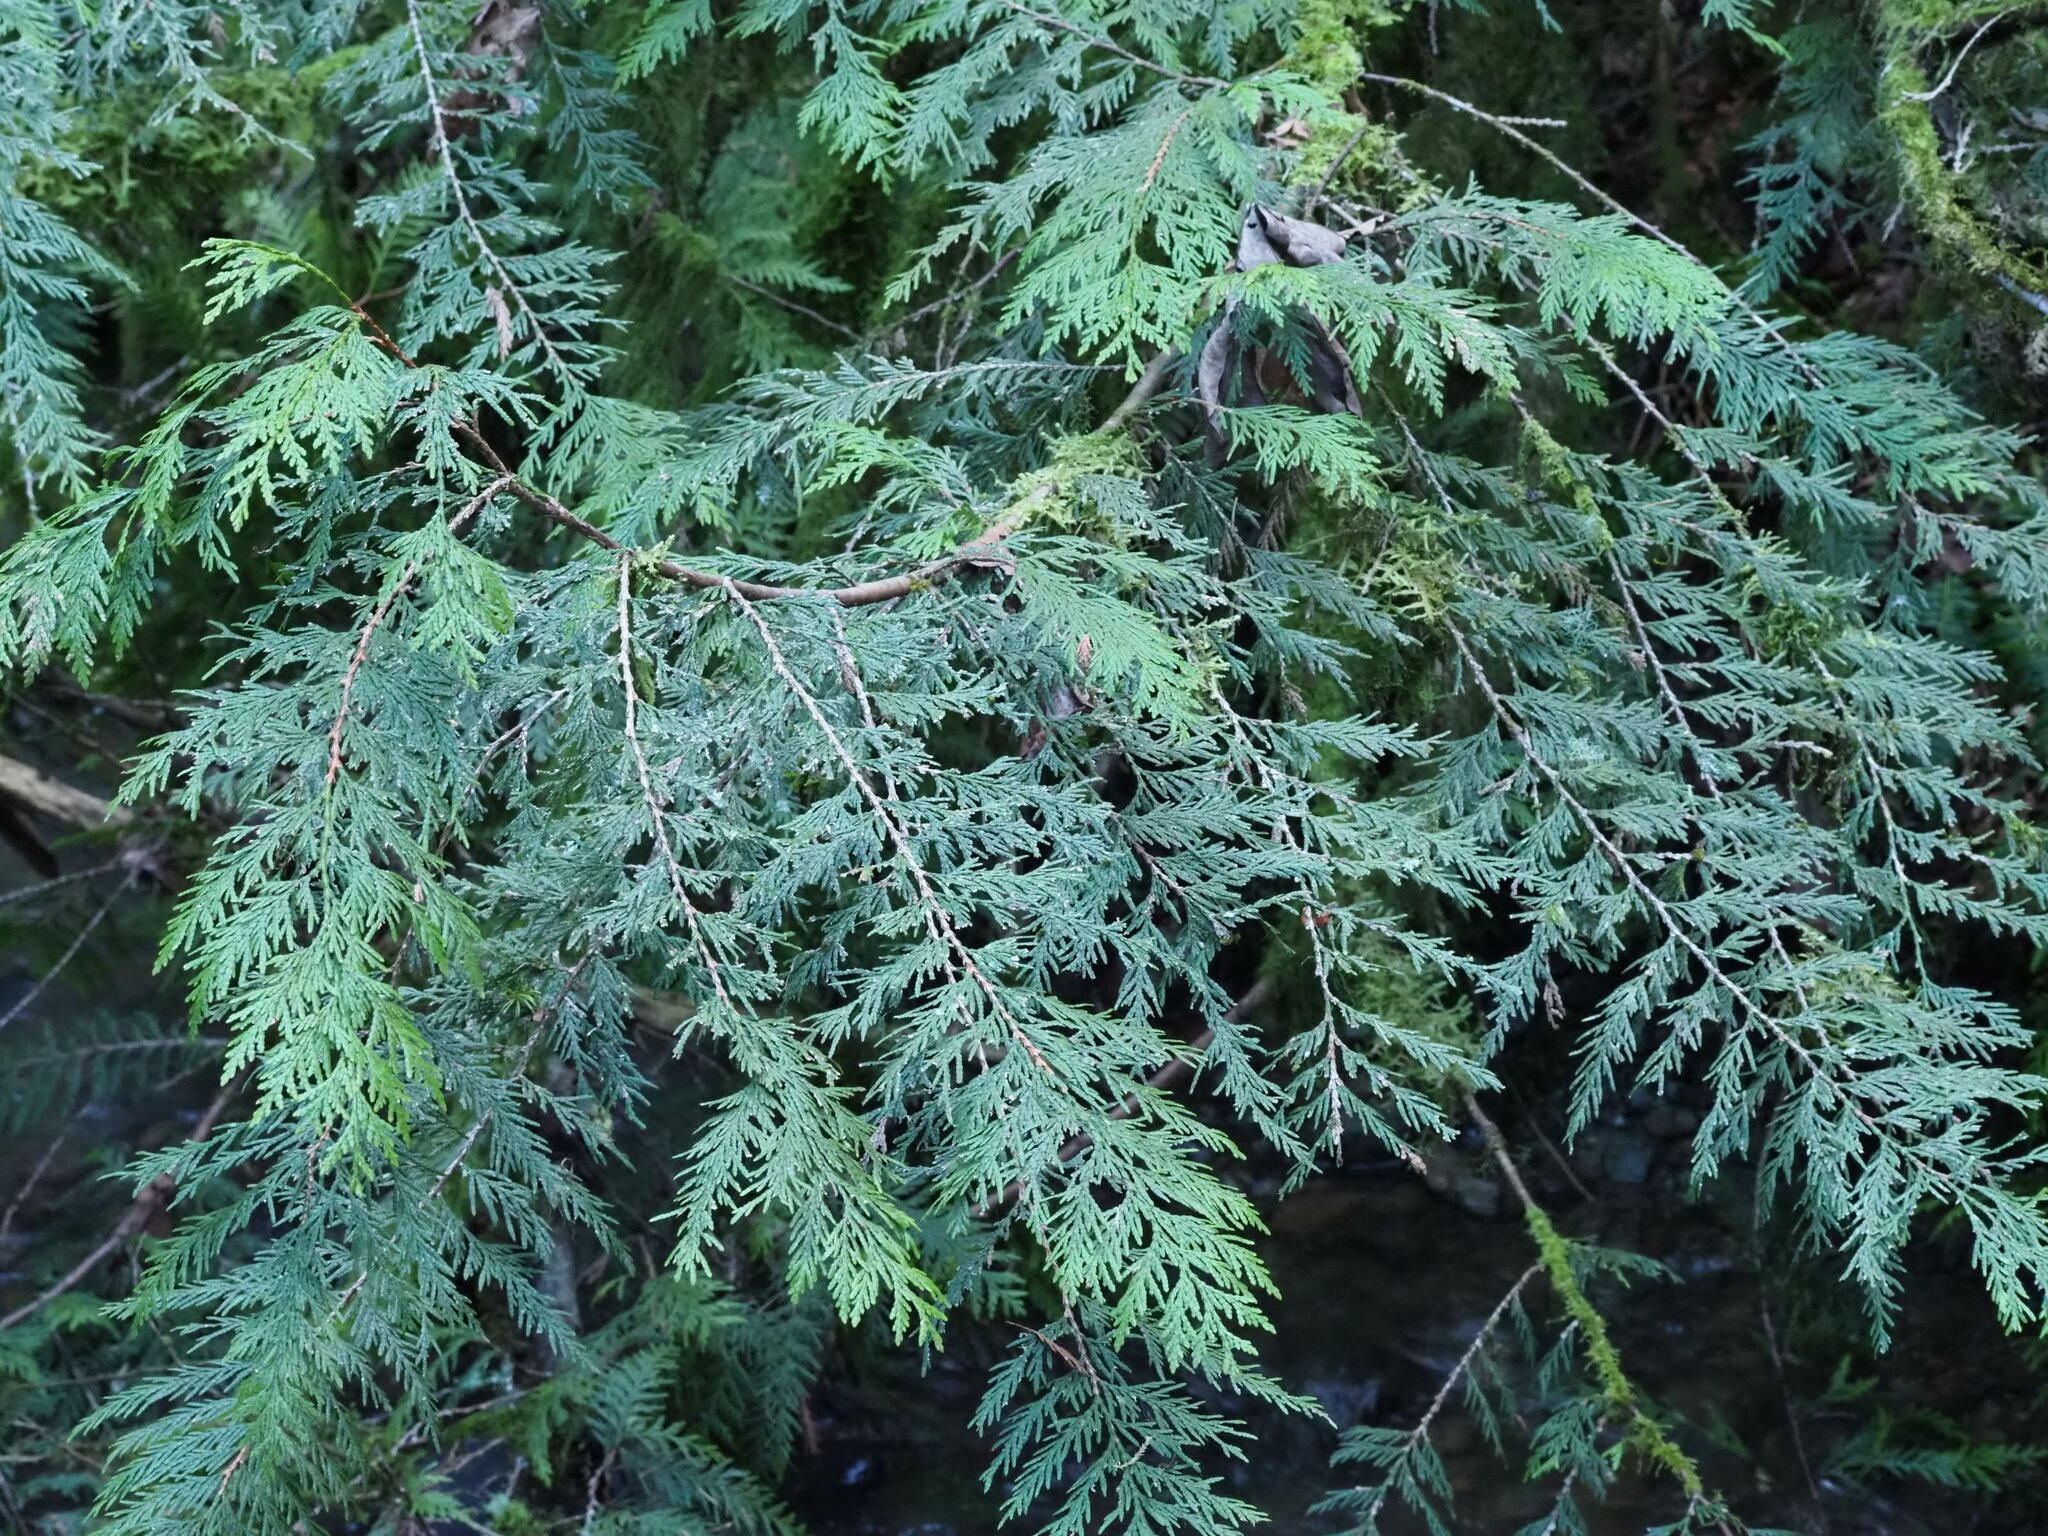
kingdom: Plantae
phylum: Tracheophyta
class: Pinopsida
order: Pinales
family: Cupressaceae
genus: Thuja
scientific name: Thuja plicata
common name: Western red-cedar
